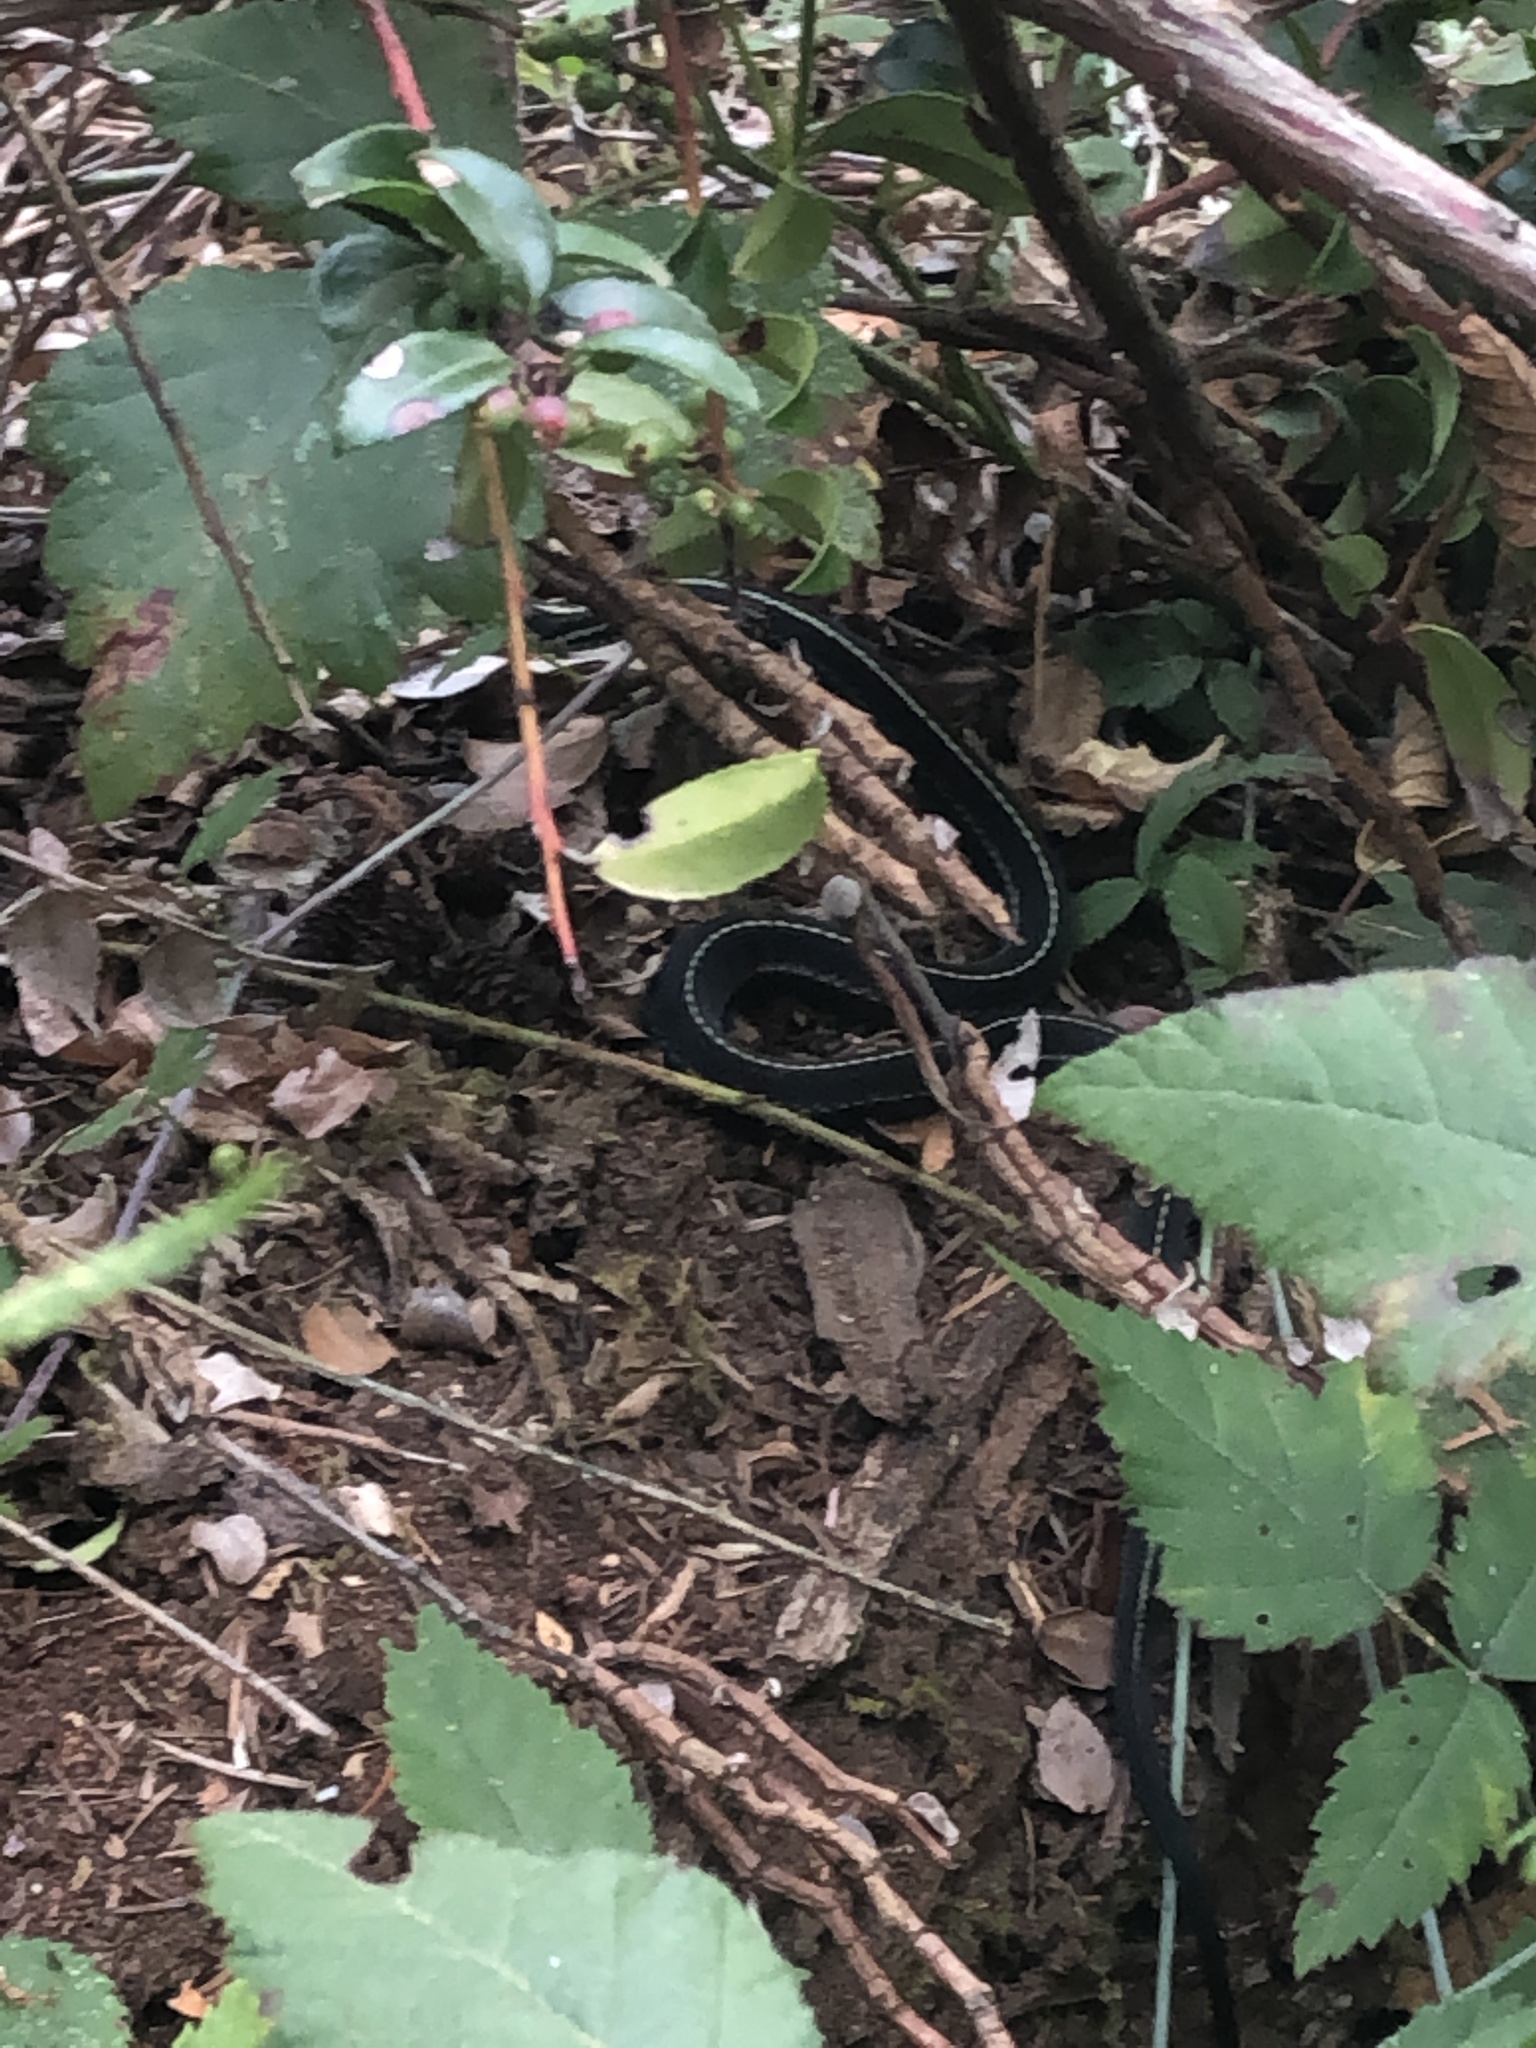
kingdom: Animalia
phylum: Chordata
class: Squamata
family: Colubridae
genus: Thamnophis
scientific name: Thamnophis sirtalis
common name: Common garter snake
